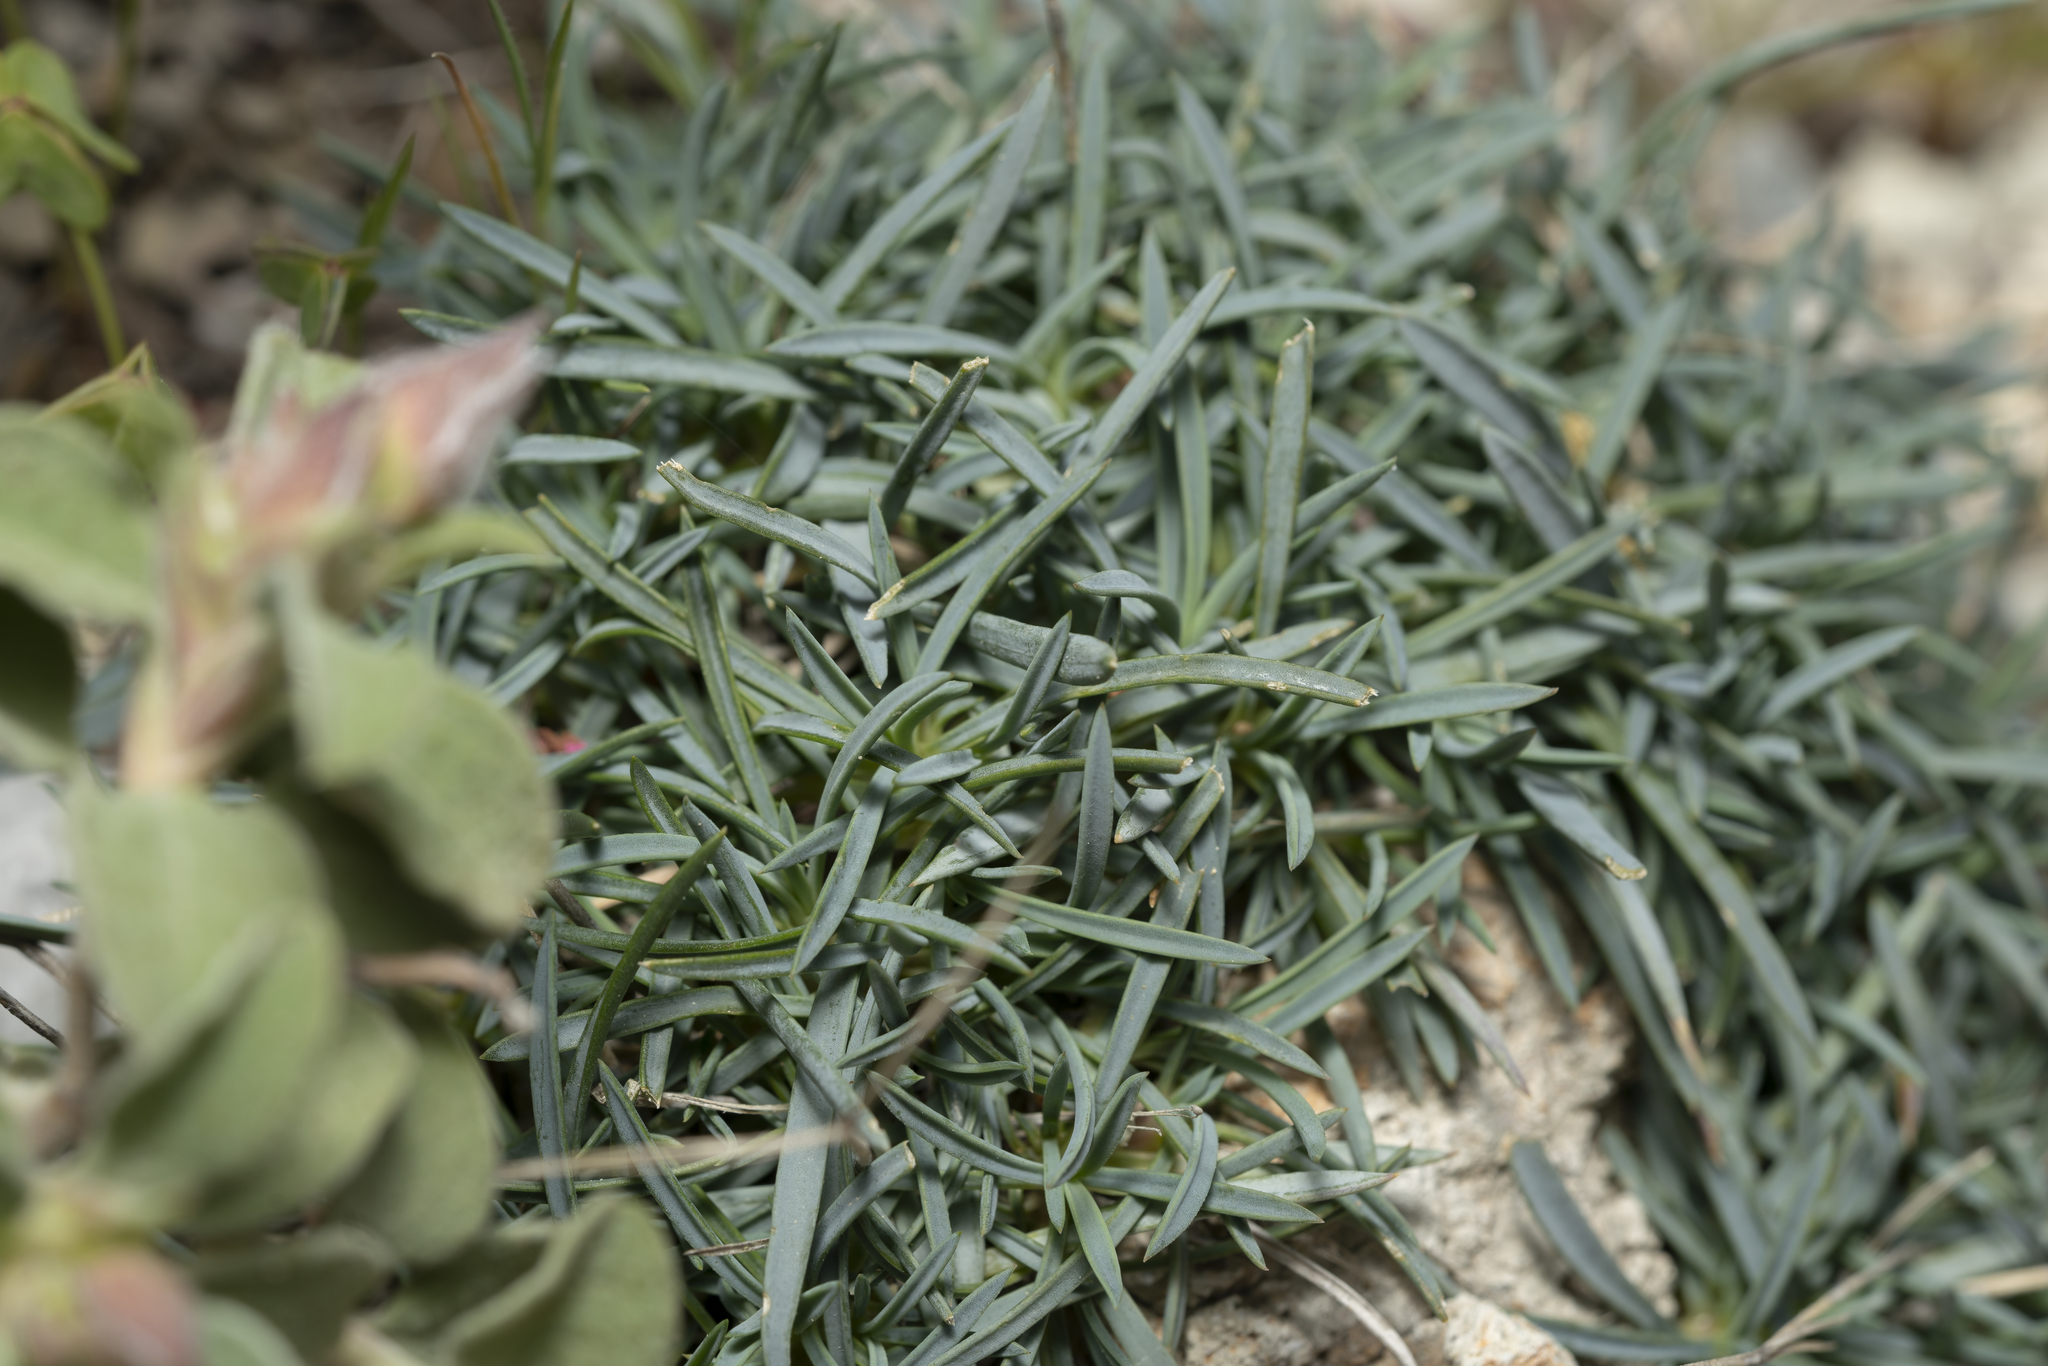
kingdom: Plantae
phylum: Tracheophyta
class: Magnoliopsida
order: Caryophyllales
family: Caryophyllaceae
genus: Dianthus
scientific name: Dianthus crinitus
